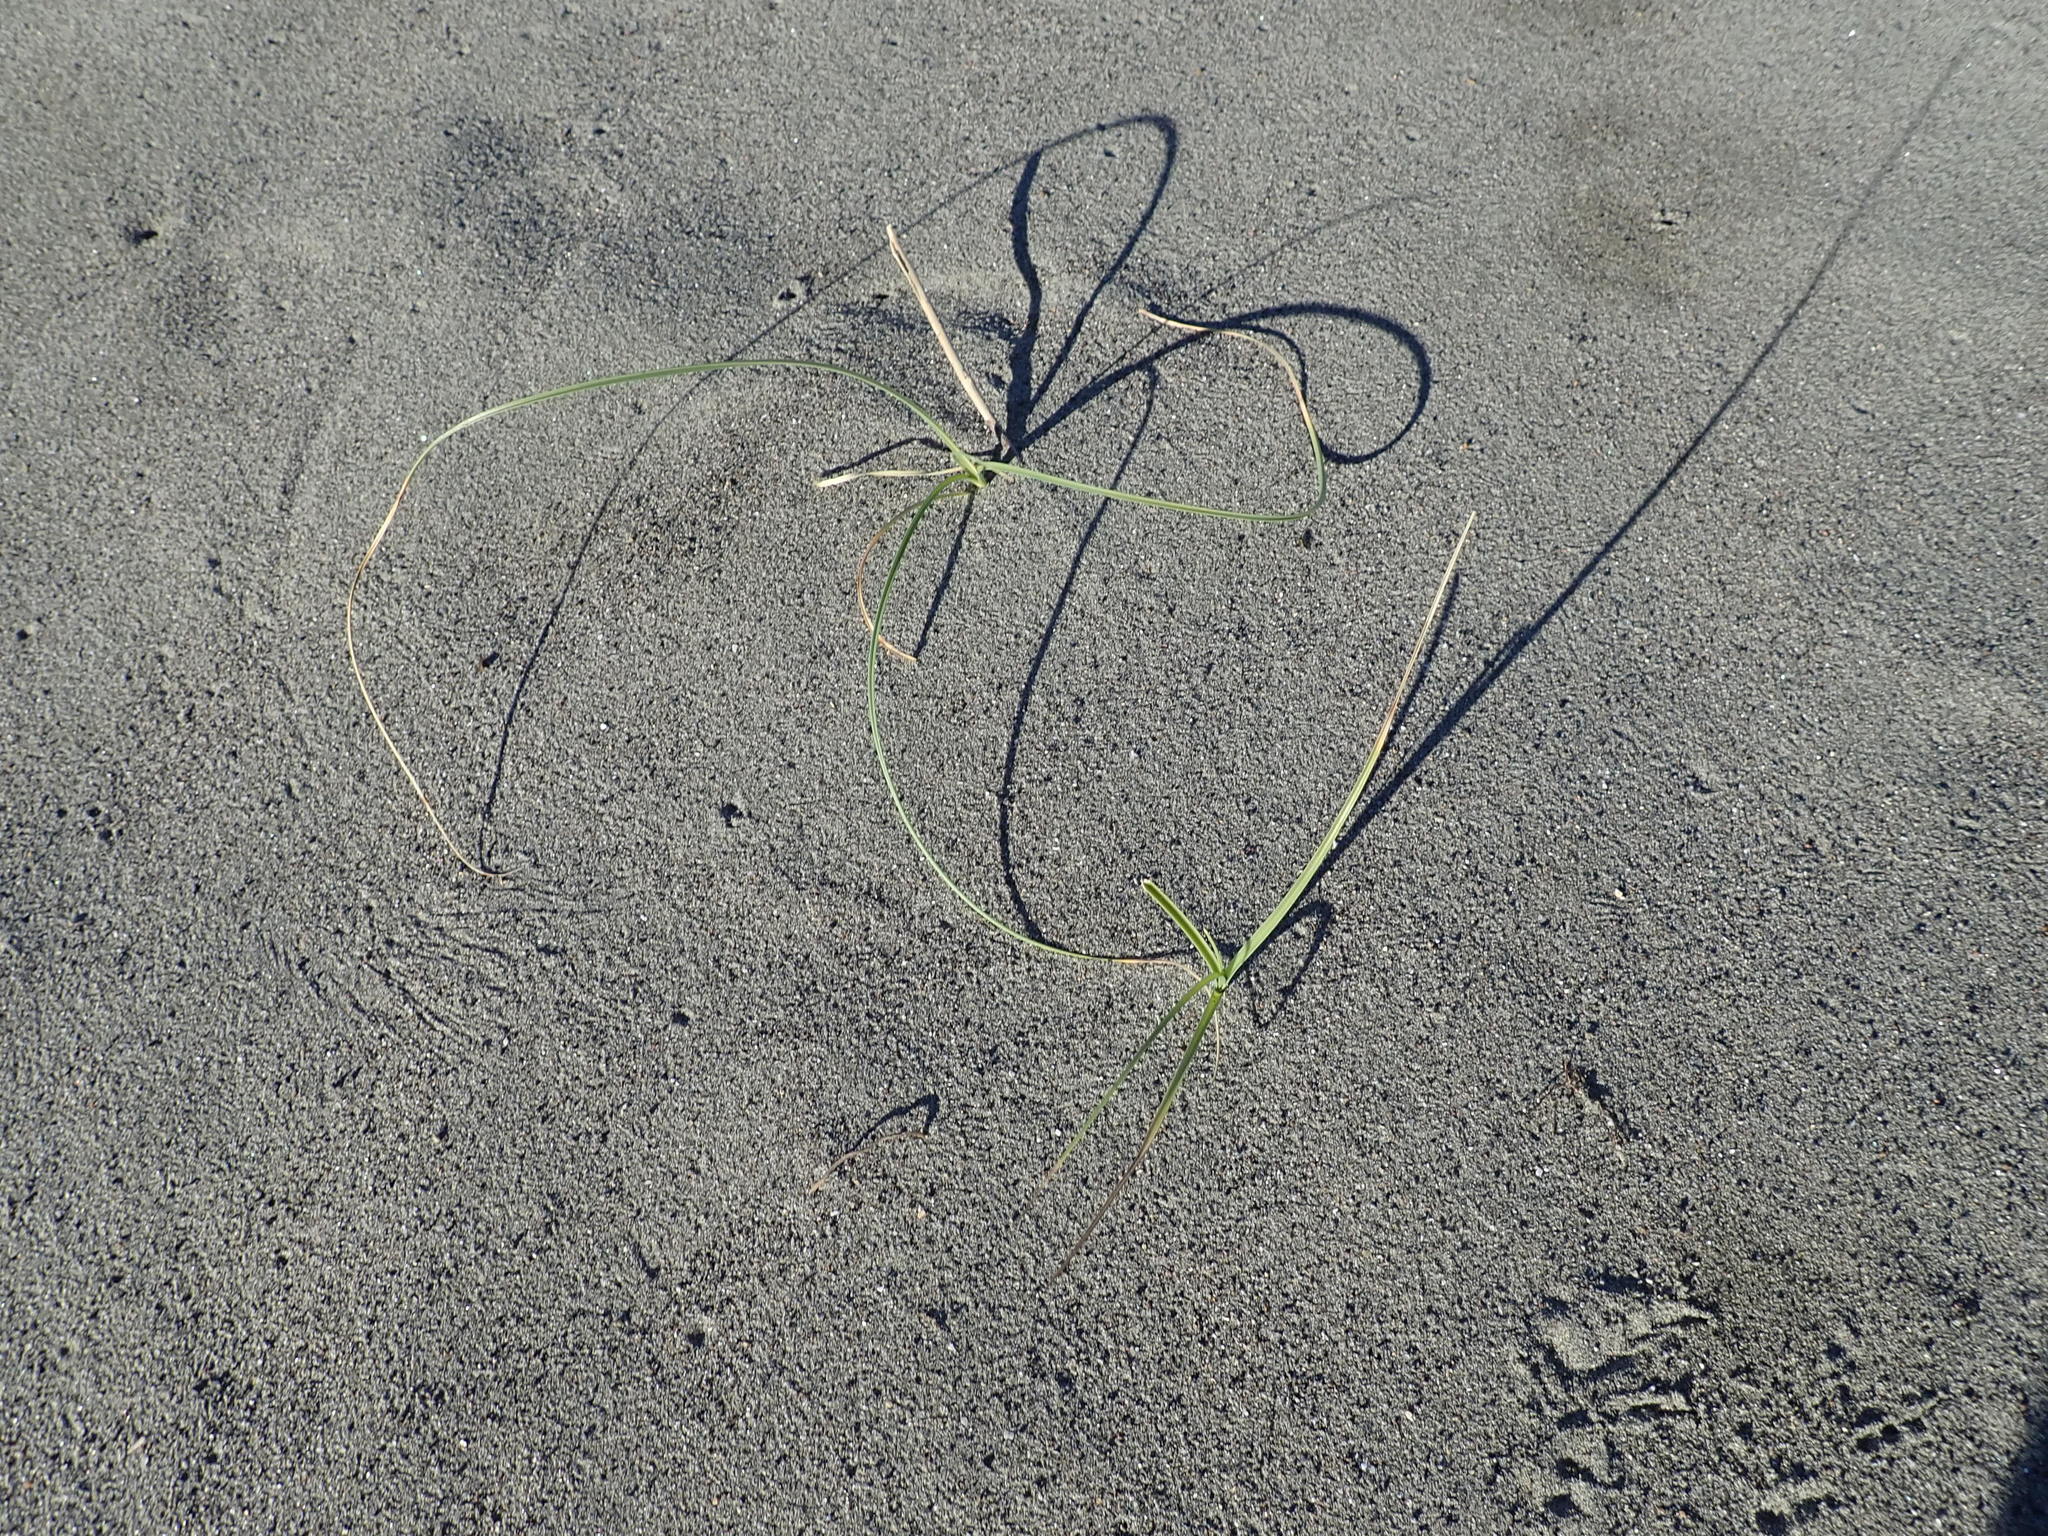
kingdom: Plantae
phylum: Tracheophyta
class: Liliopsida
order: Poales
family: Cyperaceae
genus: Carex
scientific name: Carex pumila
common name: Dwarf sedge
